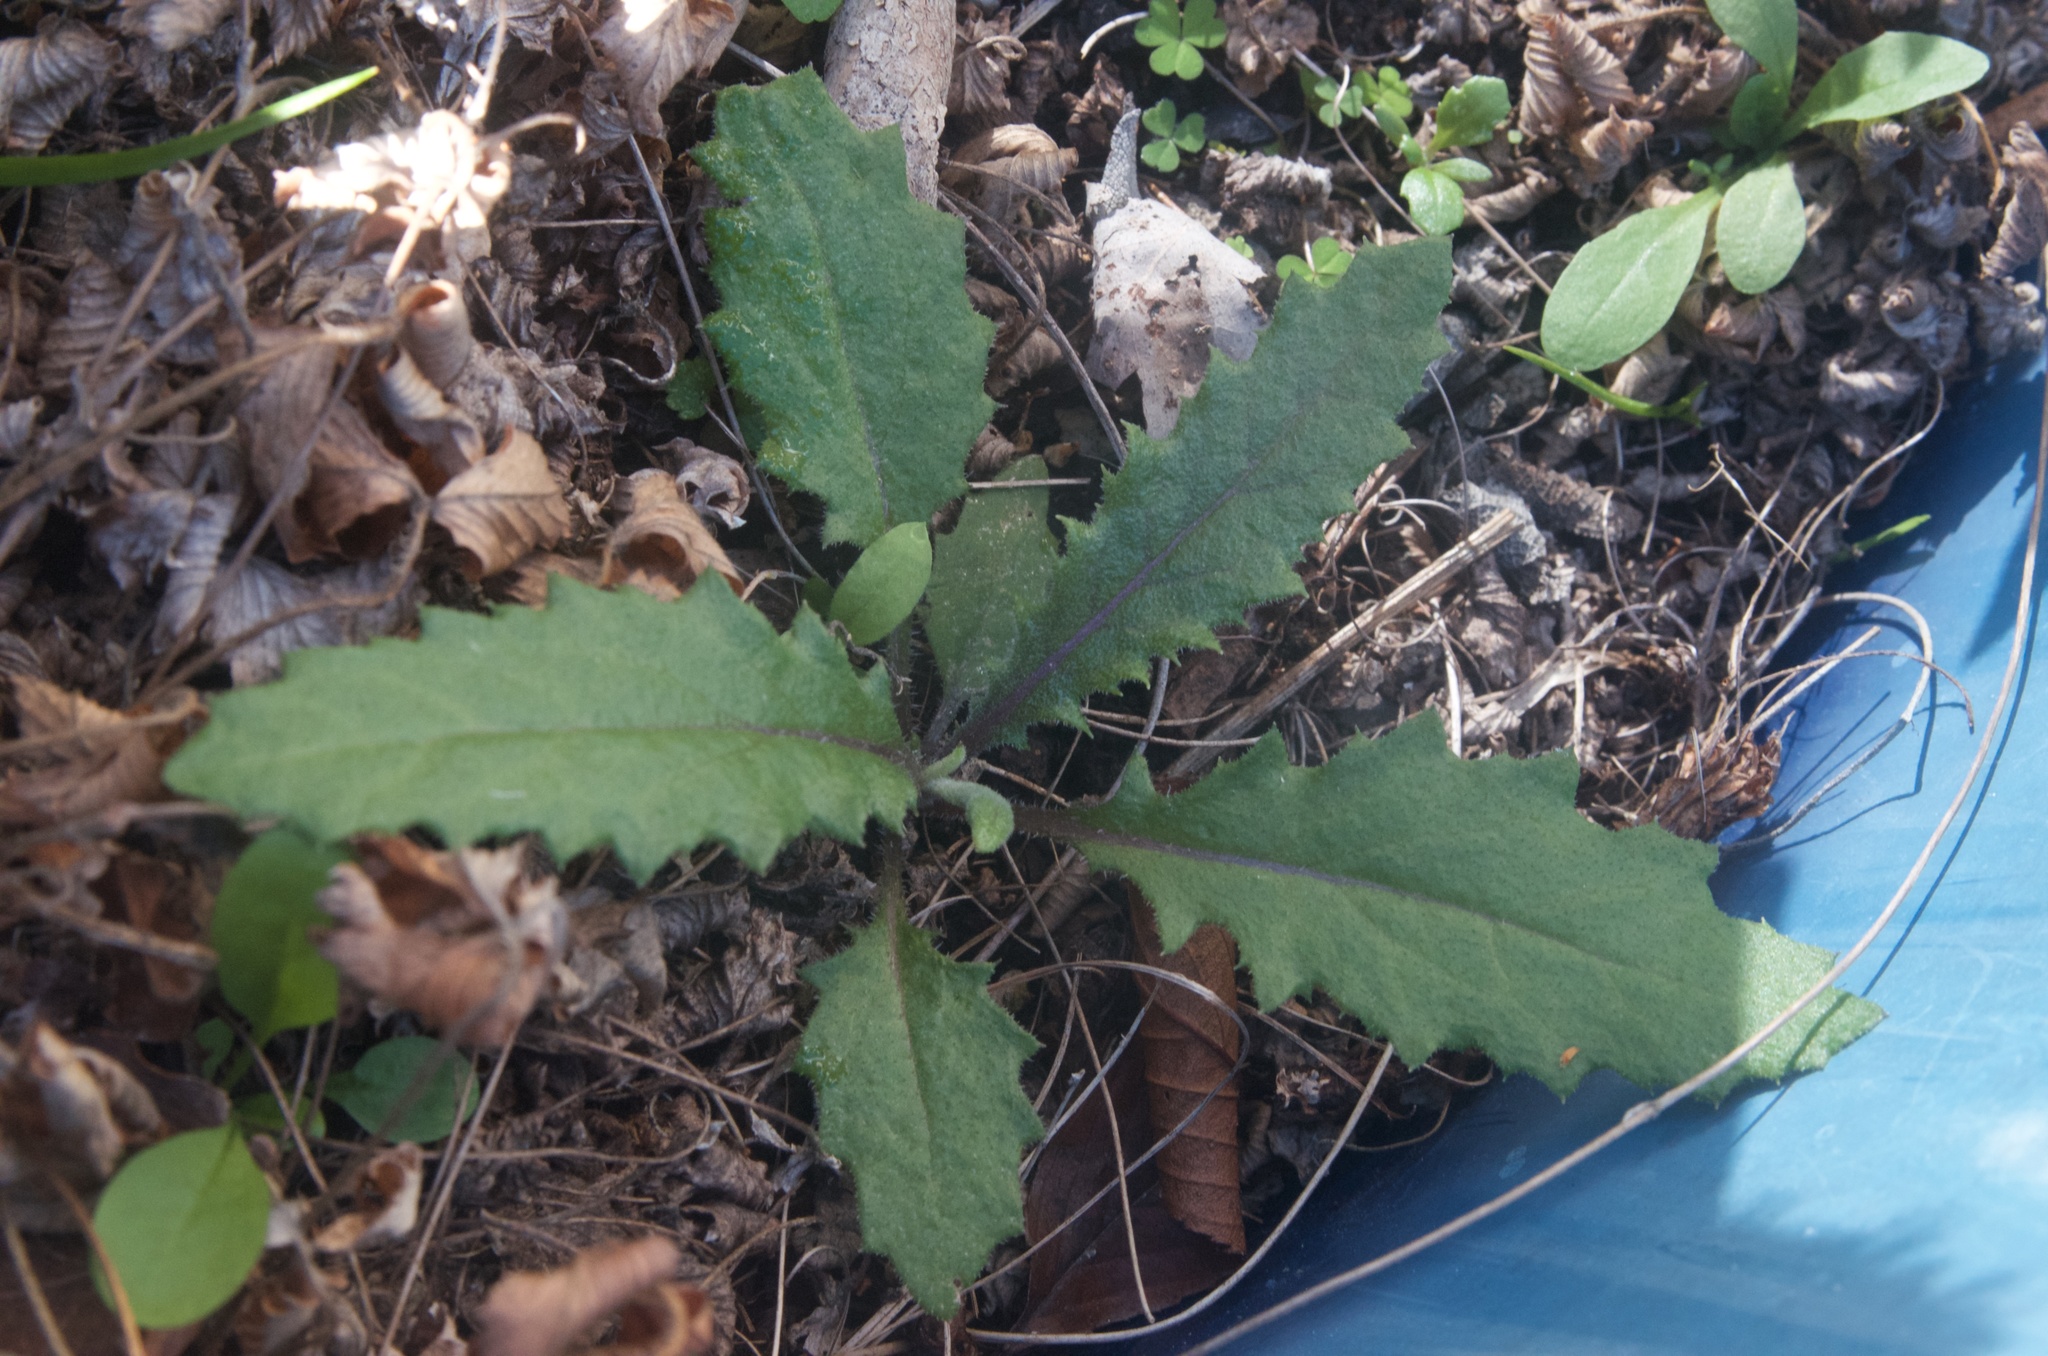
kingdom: Plantae
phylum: Tracheophyta
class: Magnoliopsida
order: Asterales
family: Asteraceae
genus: Senecio
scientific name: Senecio minimus
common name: Toothed fireweed
